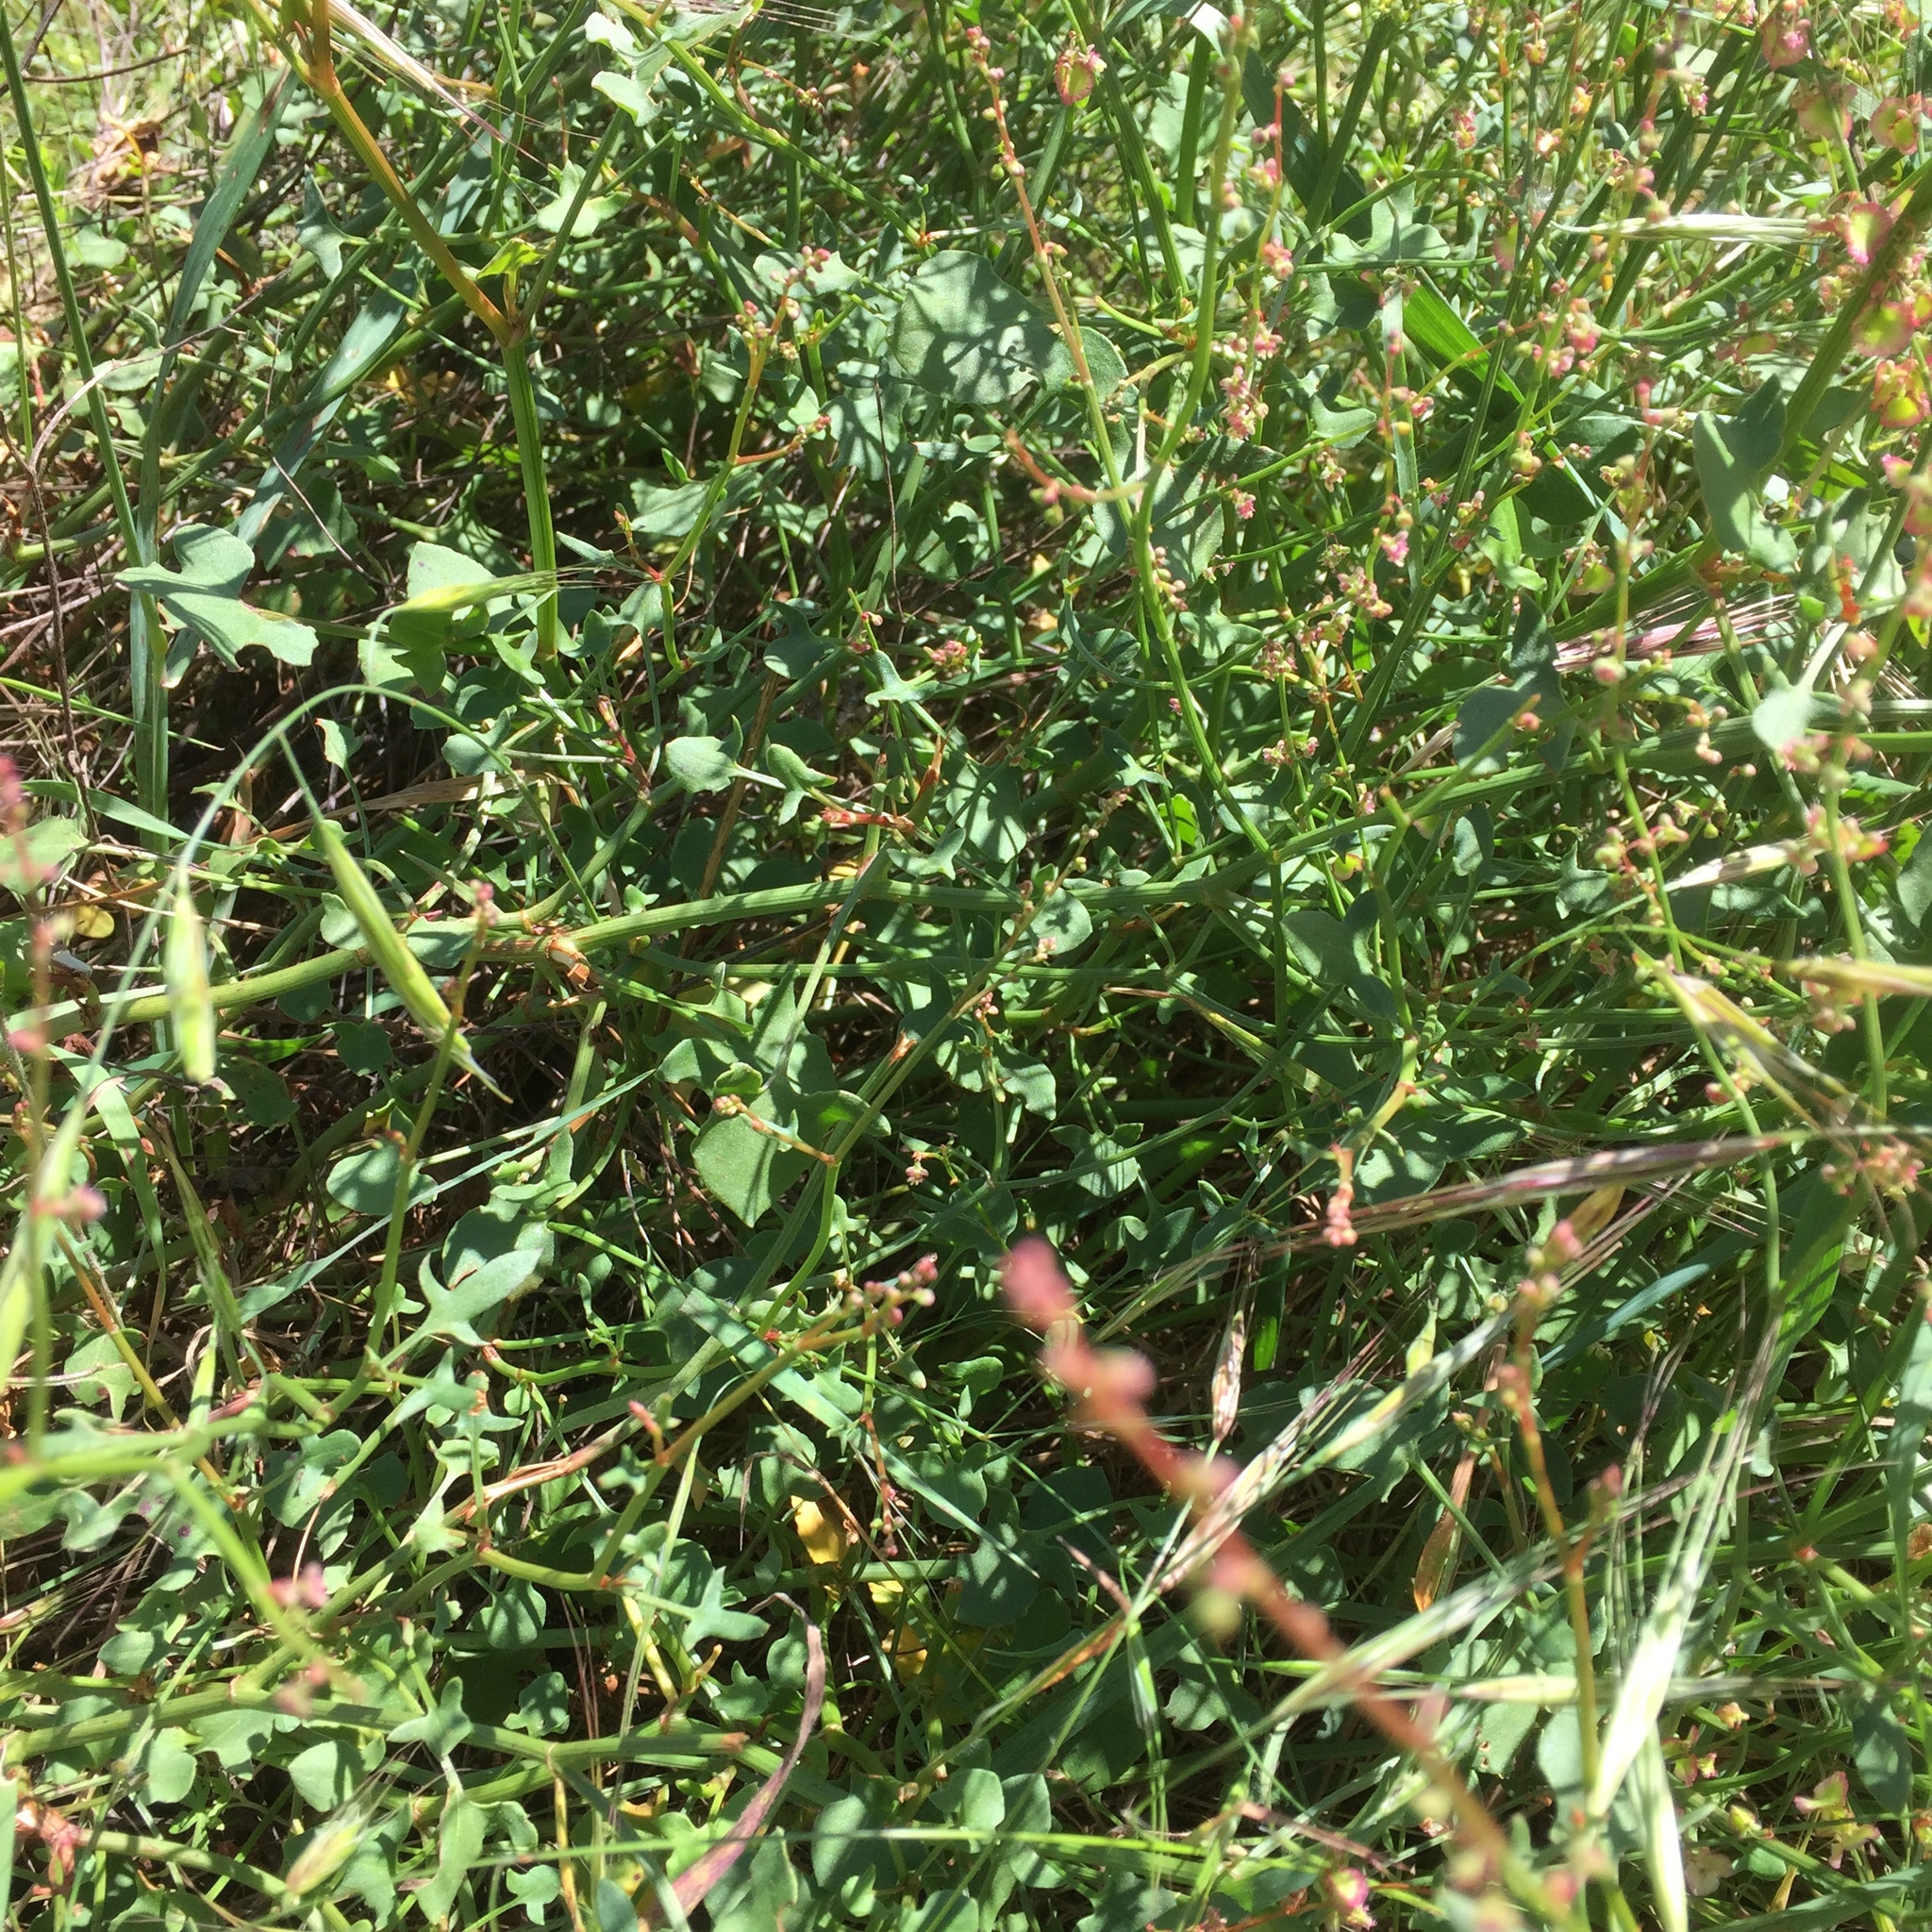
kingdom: Plantae
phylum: Tracheophyta
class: Magnoliopsida
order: Caryophyllales
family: Polygonaceae
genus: Rumex
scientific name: Rumex acetosella
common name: Common sheep sorrel
